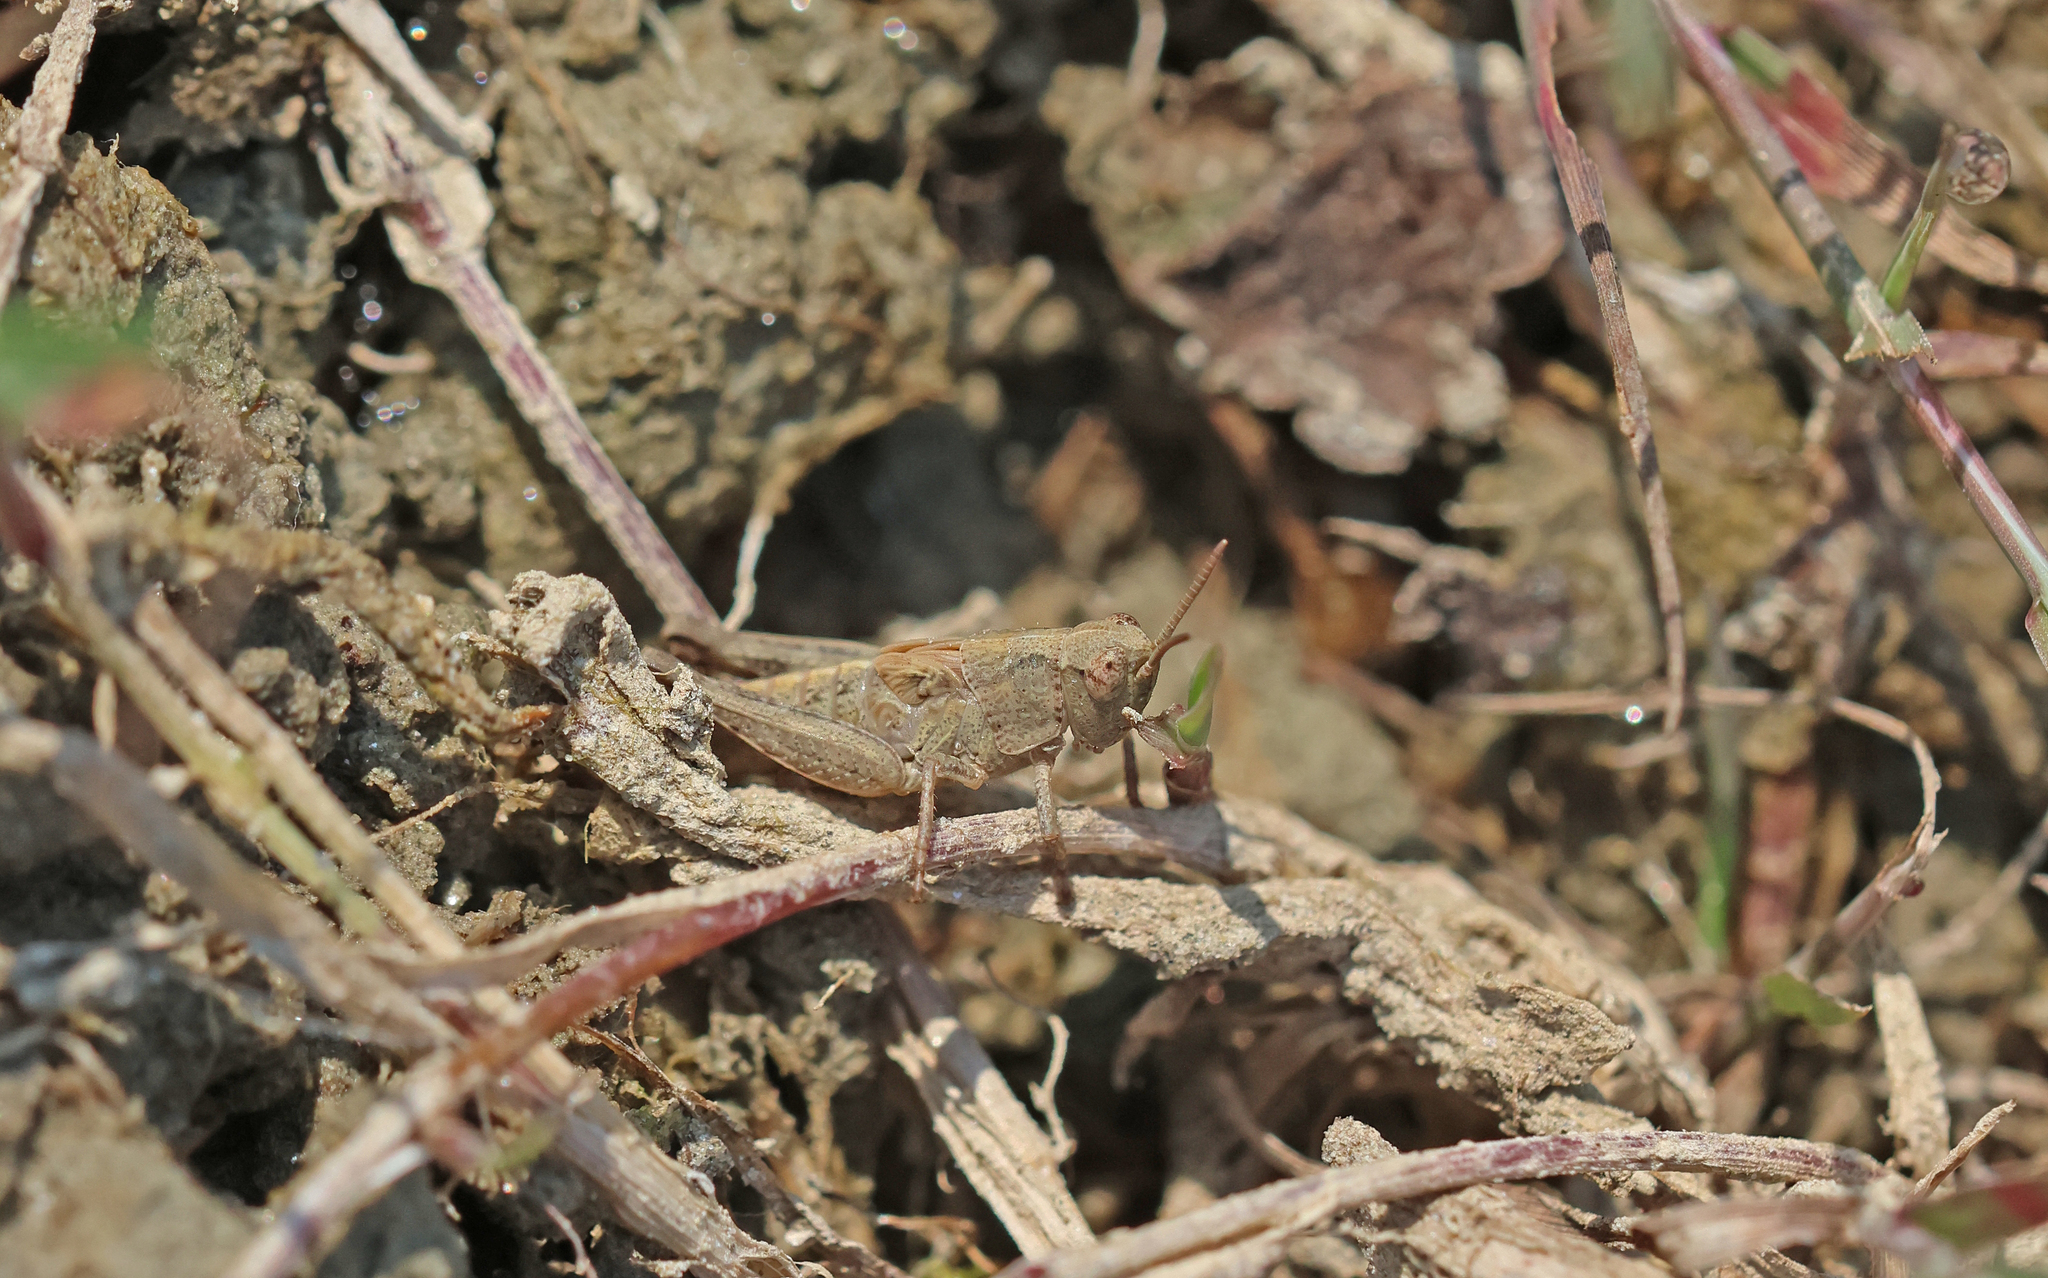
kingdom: Animalia
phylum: Arthropoda
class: Insecta
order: Orthoptera
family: Acrididae
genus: Aiolopus
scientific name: Aiolopus thalassinus
